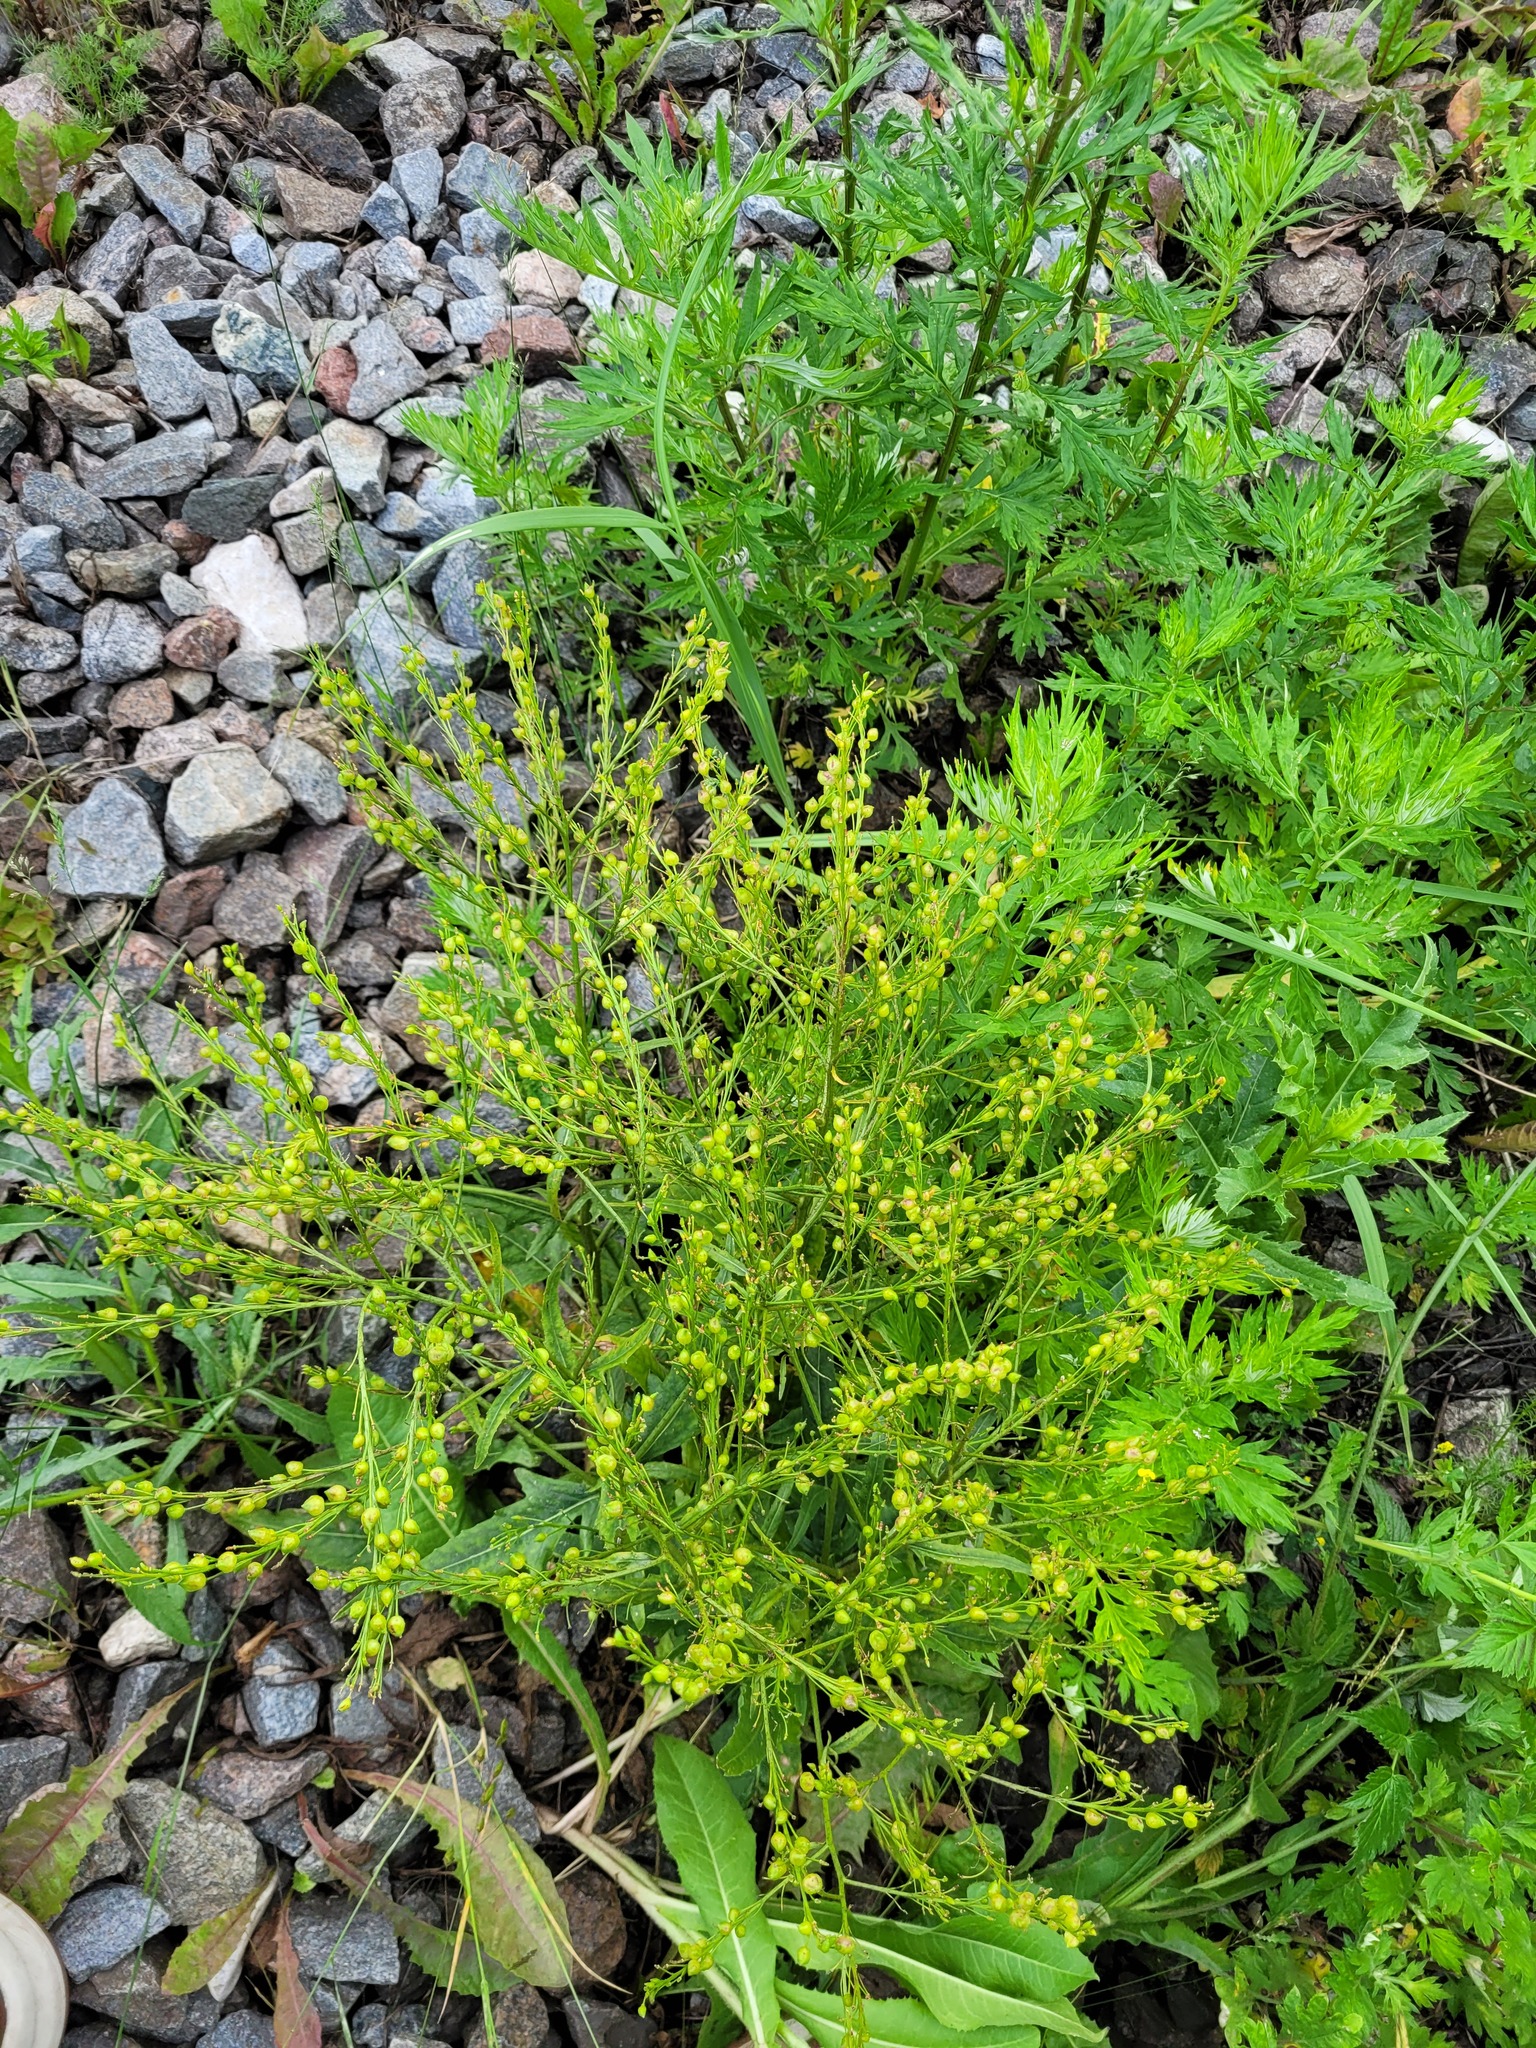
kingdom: Plantae
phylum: Tracheophyta
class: Magnoliopsida
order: Brassicales
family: Brassicaceae
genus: Bunias
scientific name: Bunias orientalis
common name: Warty-cabbage
